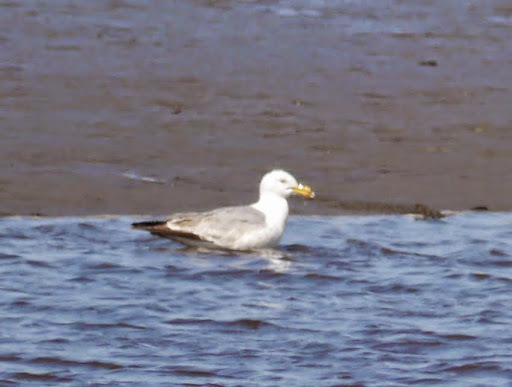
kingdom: Animalia
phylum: Chordata
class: Aves
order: Charadriiformes
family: Laridae
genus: Larus
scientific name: Larus argentatus
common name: Herring gull
